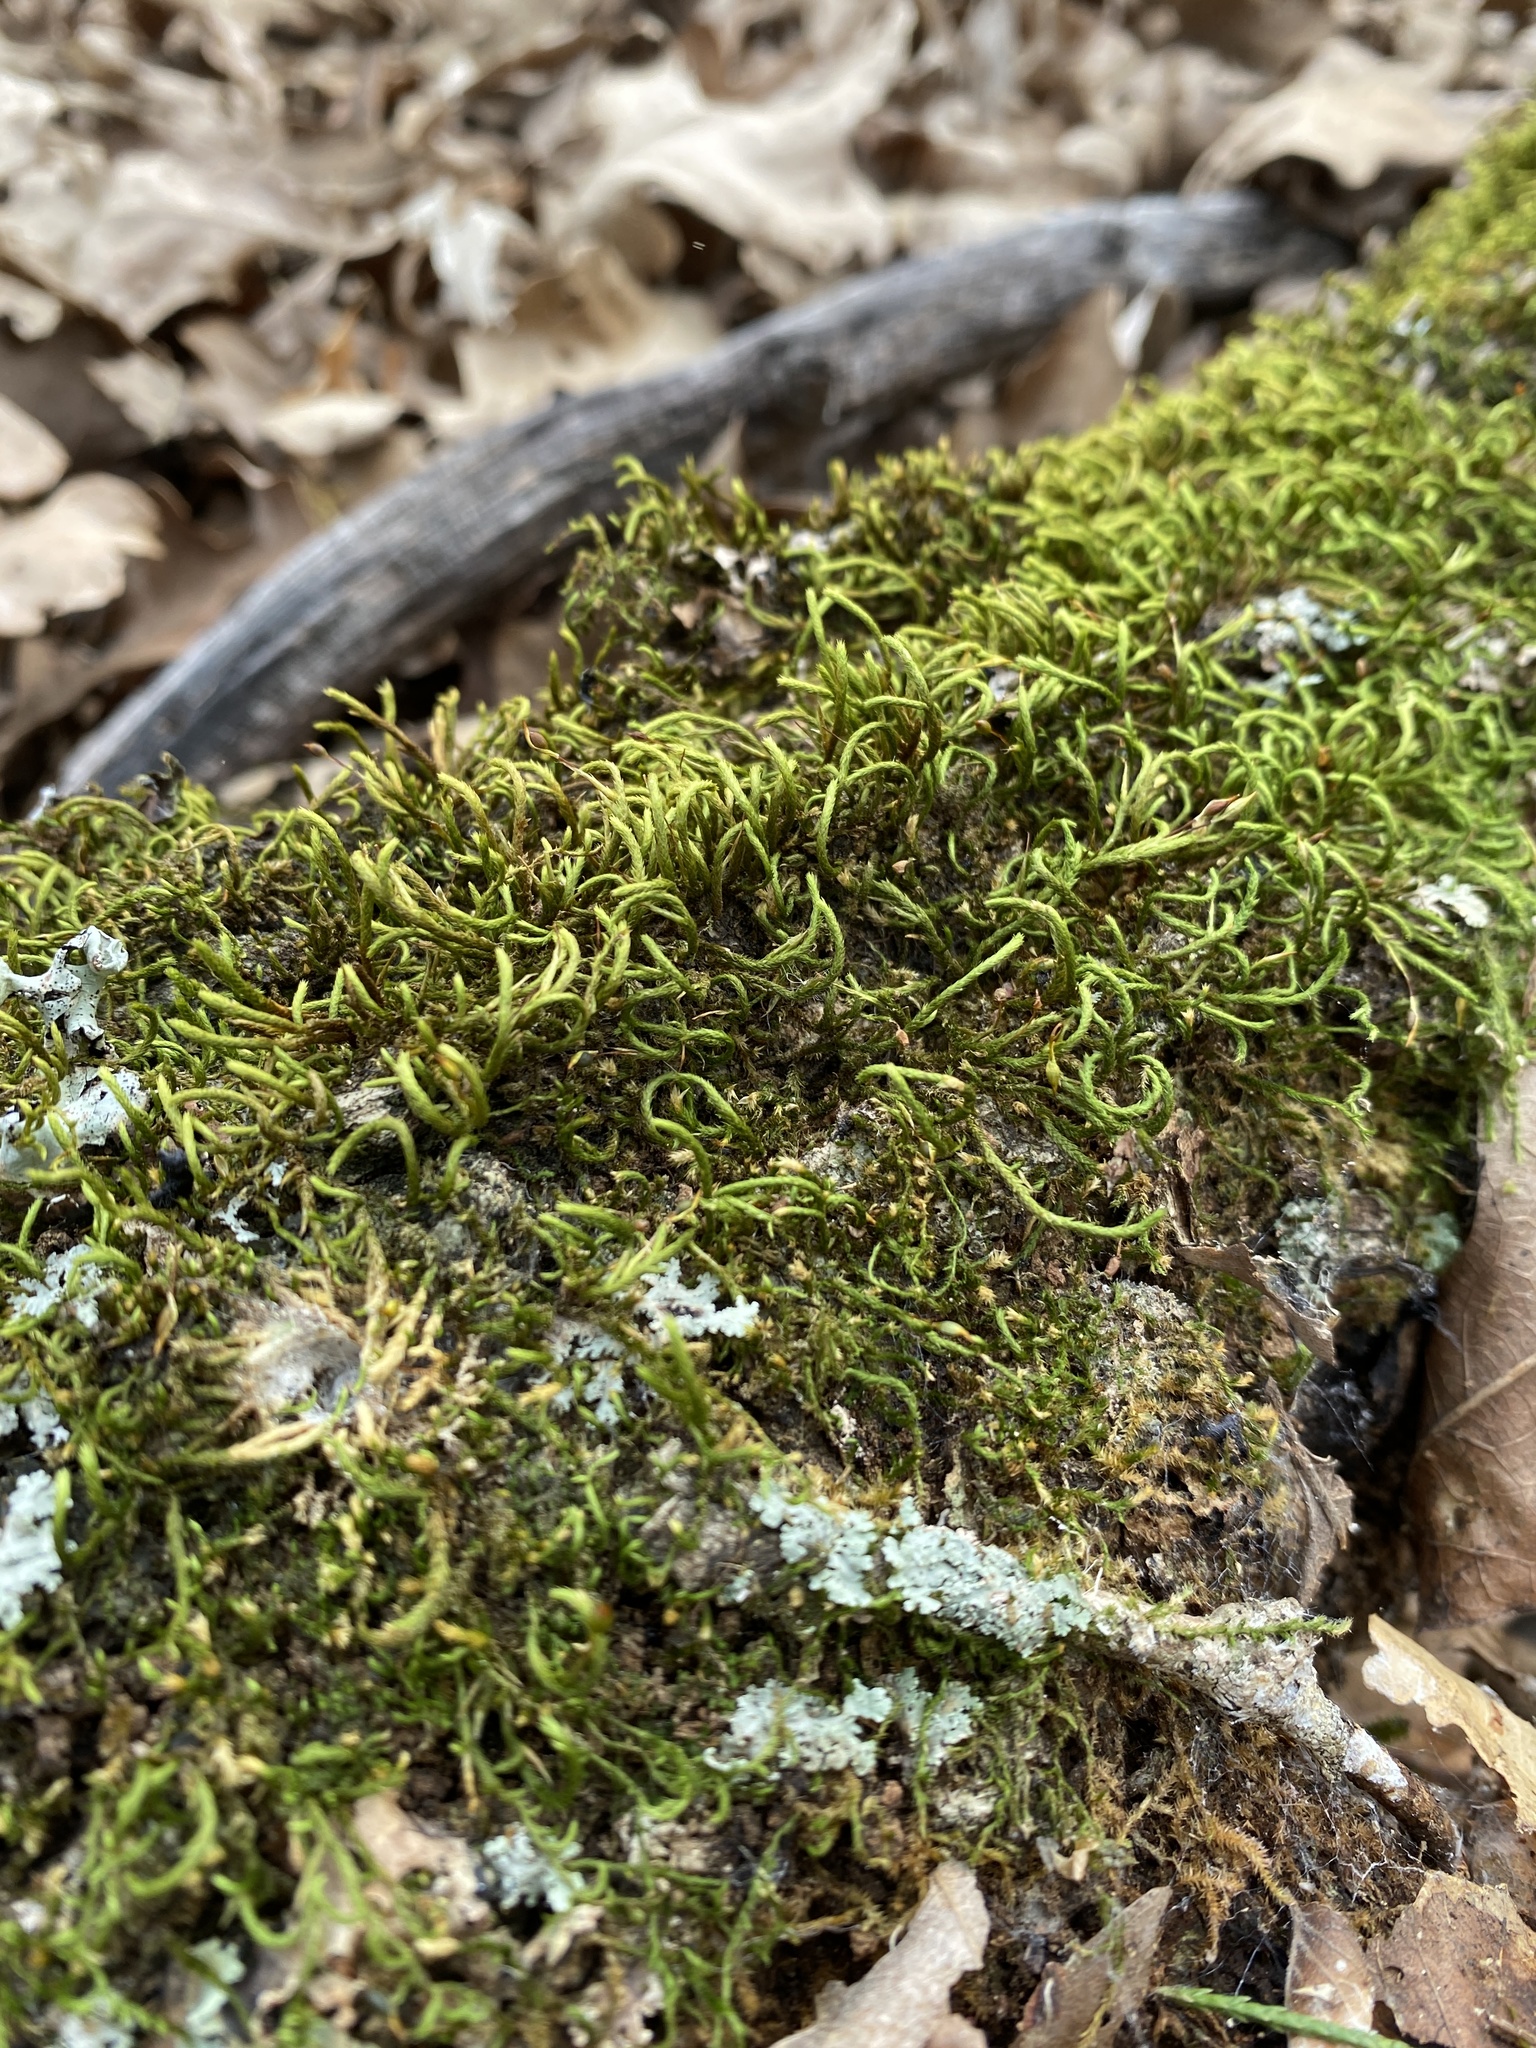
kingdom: Plantae
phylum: Bryophyta
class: Bryopsida
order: Hypnales
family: Entodontaceae
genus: Entodon
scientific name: Entodon seductrix
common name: Round-stemmed entodon moss
